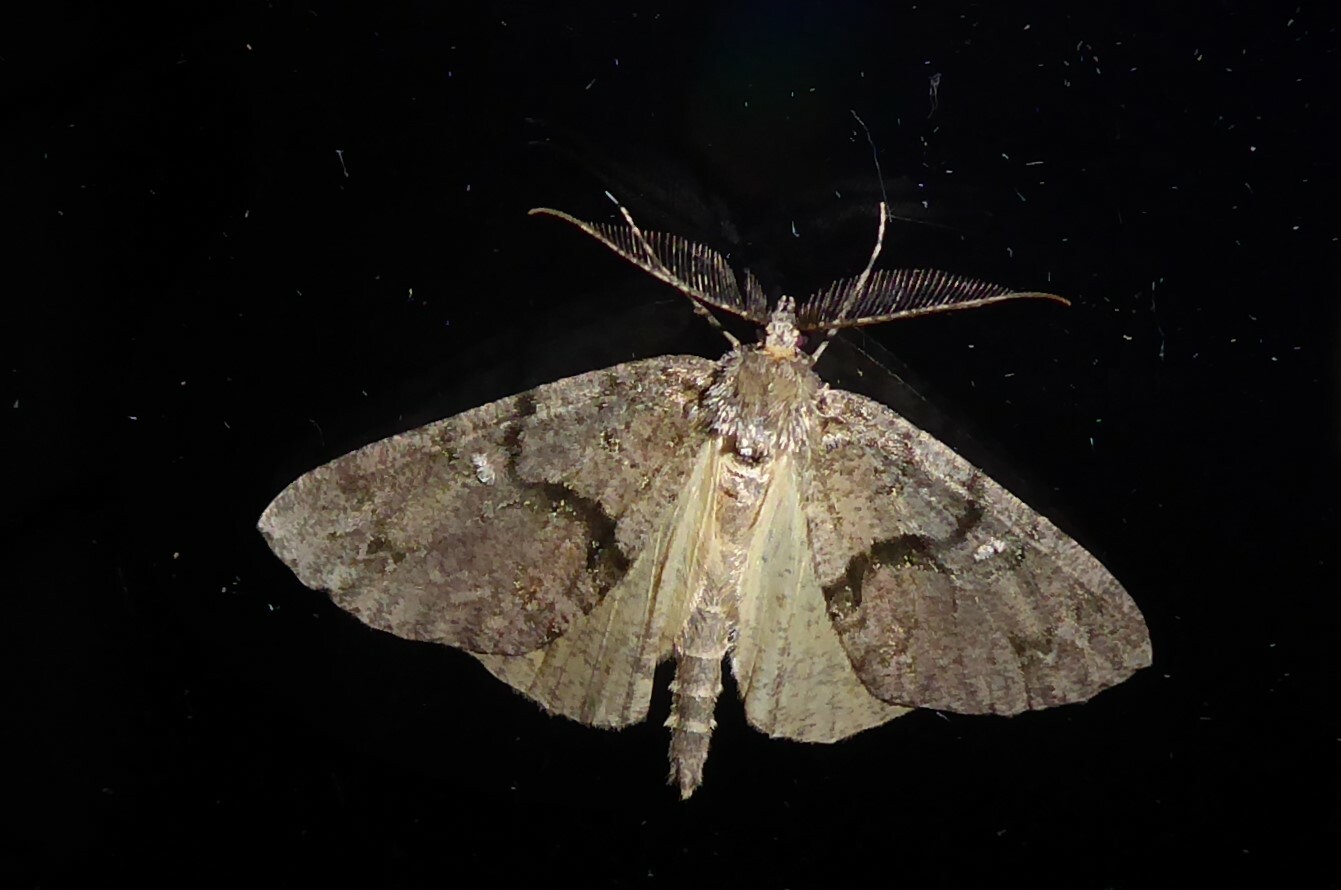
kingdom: Animalia
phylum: Arthropoda
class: Insecta
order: Lepidoptera
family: Geometridae
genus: Pseudocoremia
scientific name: Pseudocoremia suavis
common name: Common forest looper
